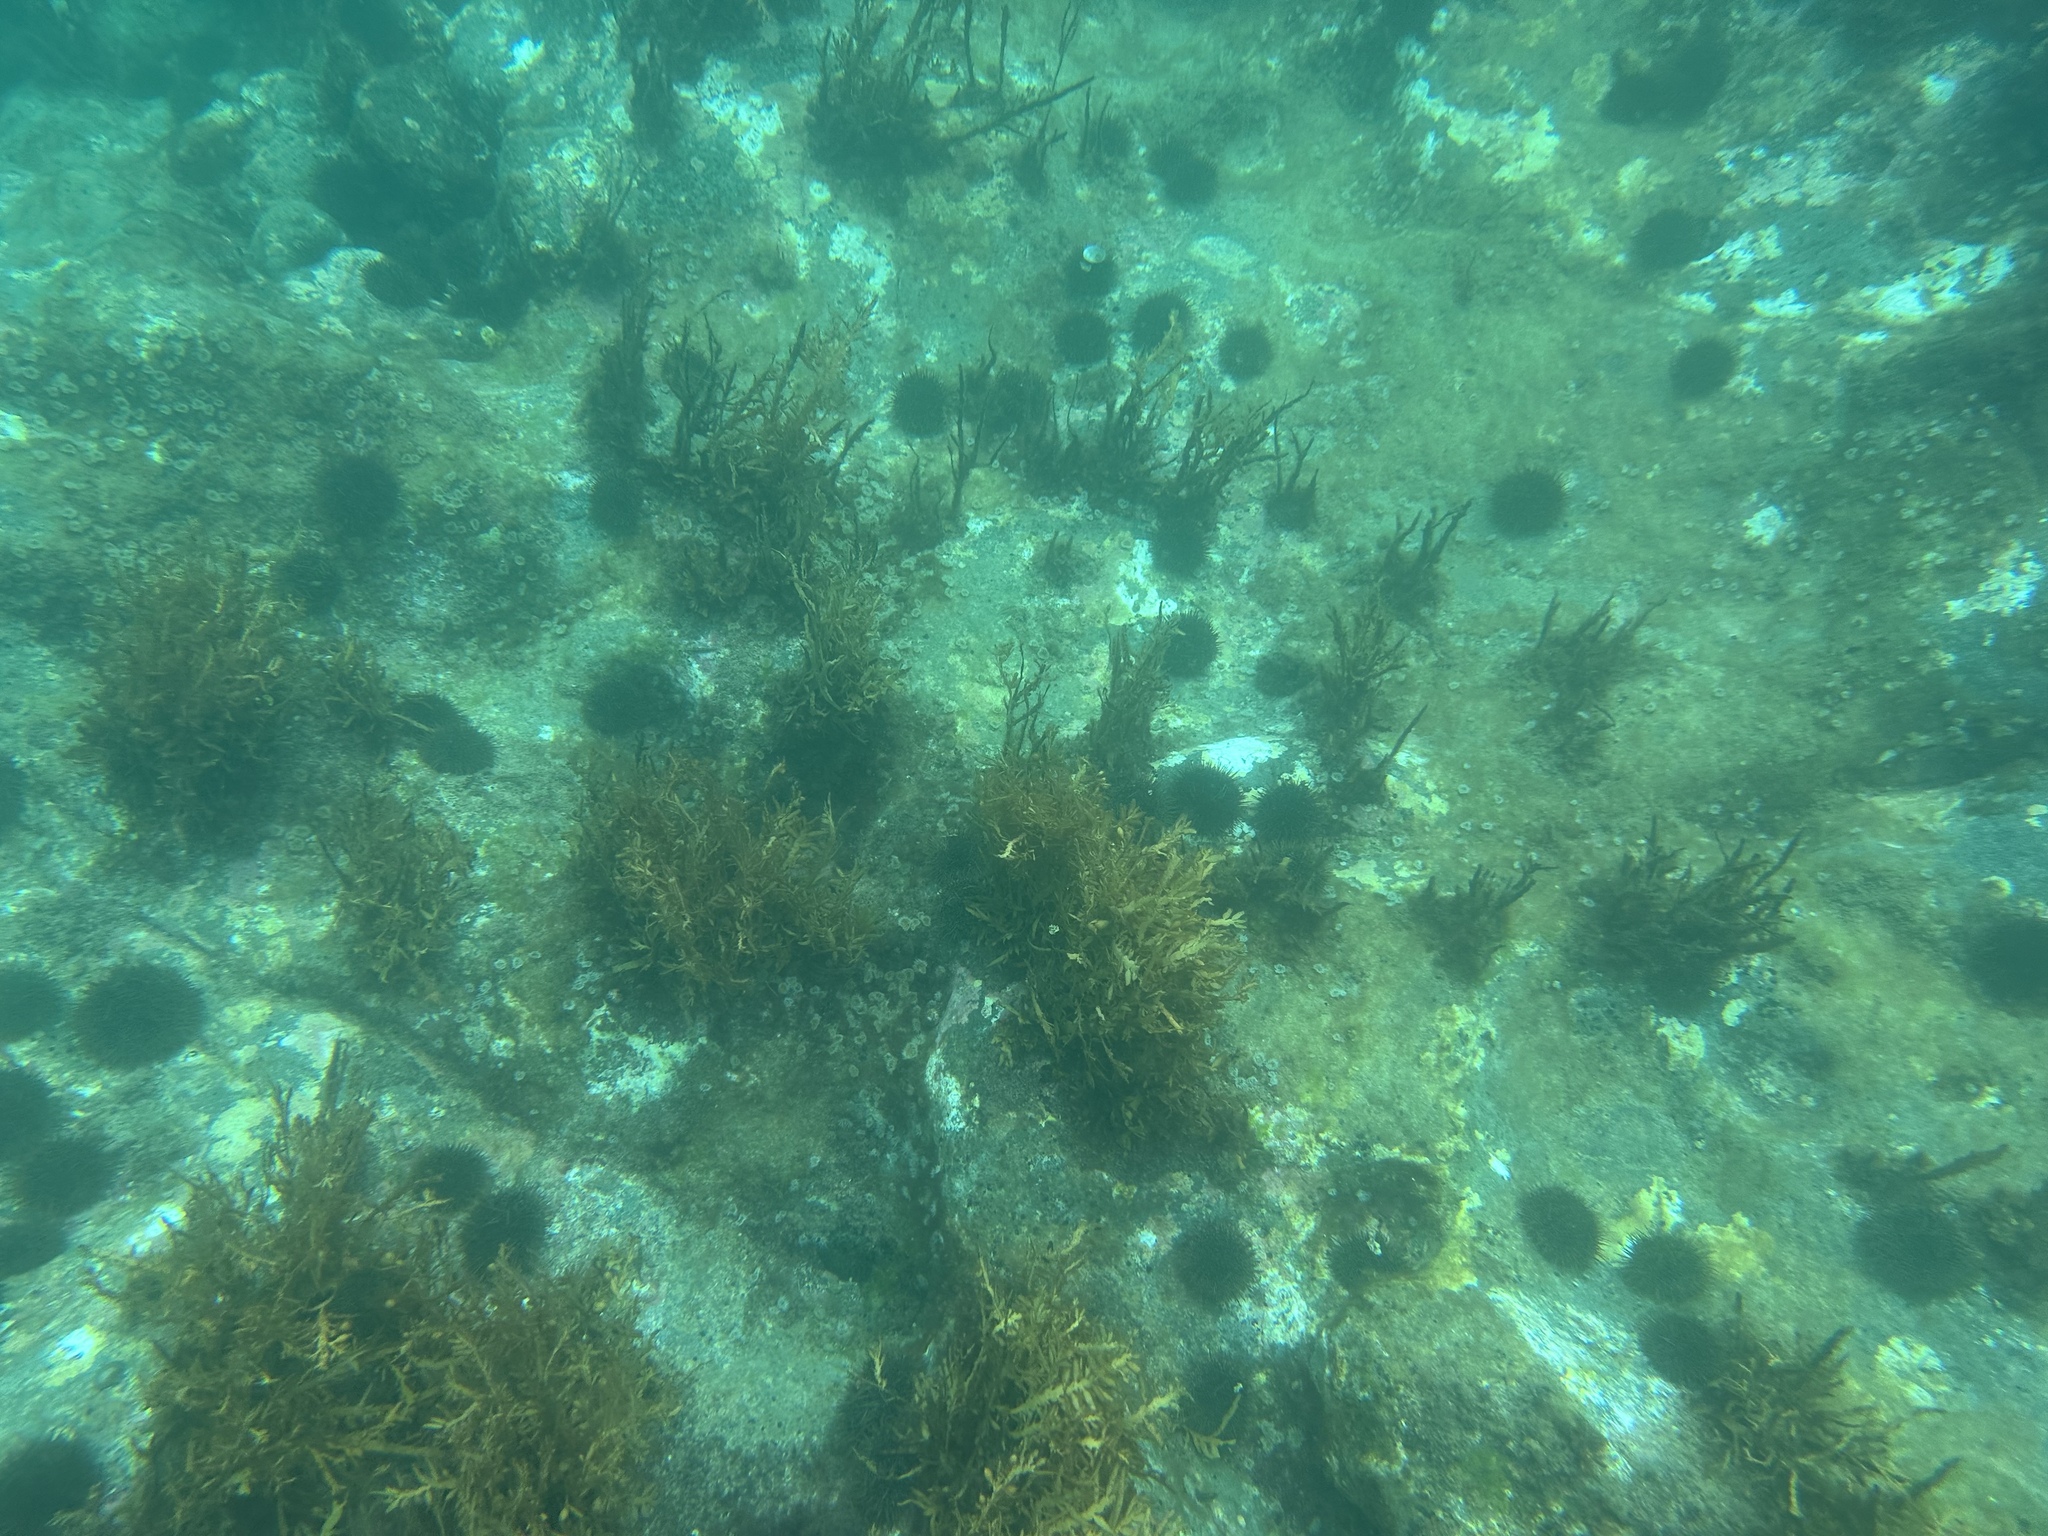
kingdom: Animalia
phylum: Echinodermata
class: Echinoidea
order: Camarodonta
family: Echinometridae
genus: Evechinus
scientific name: Evechinus chloroticus
